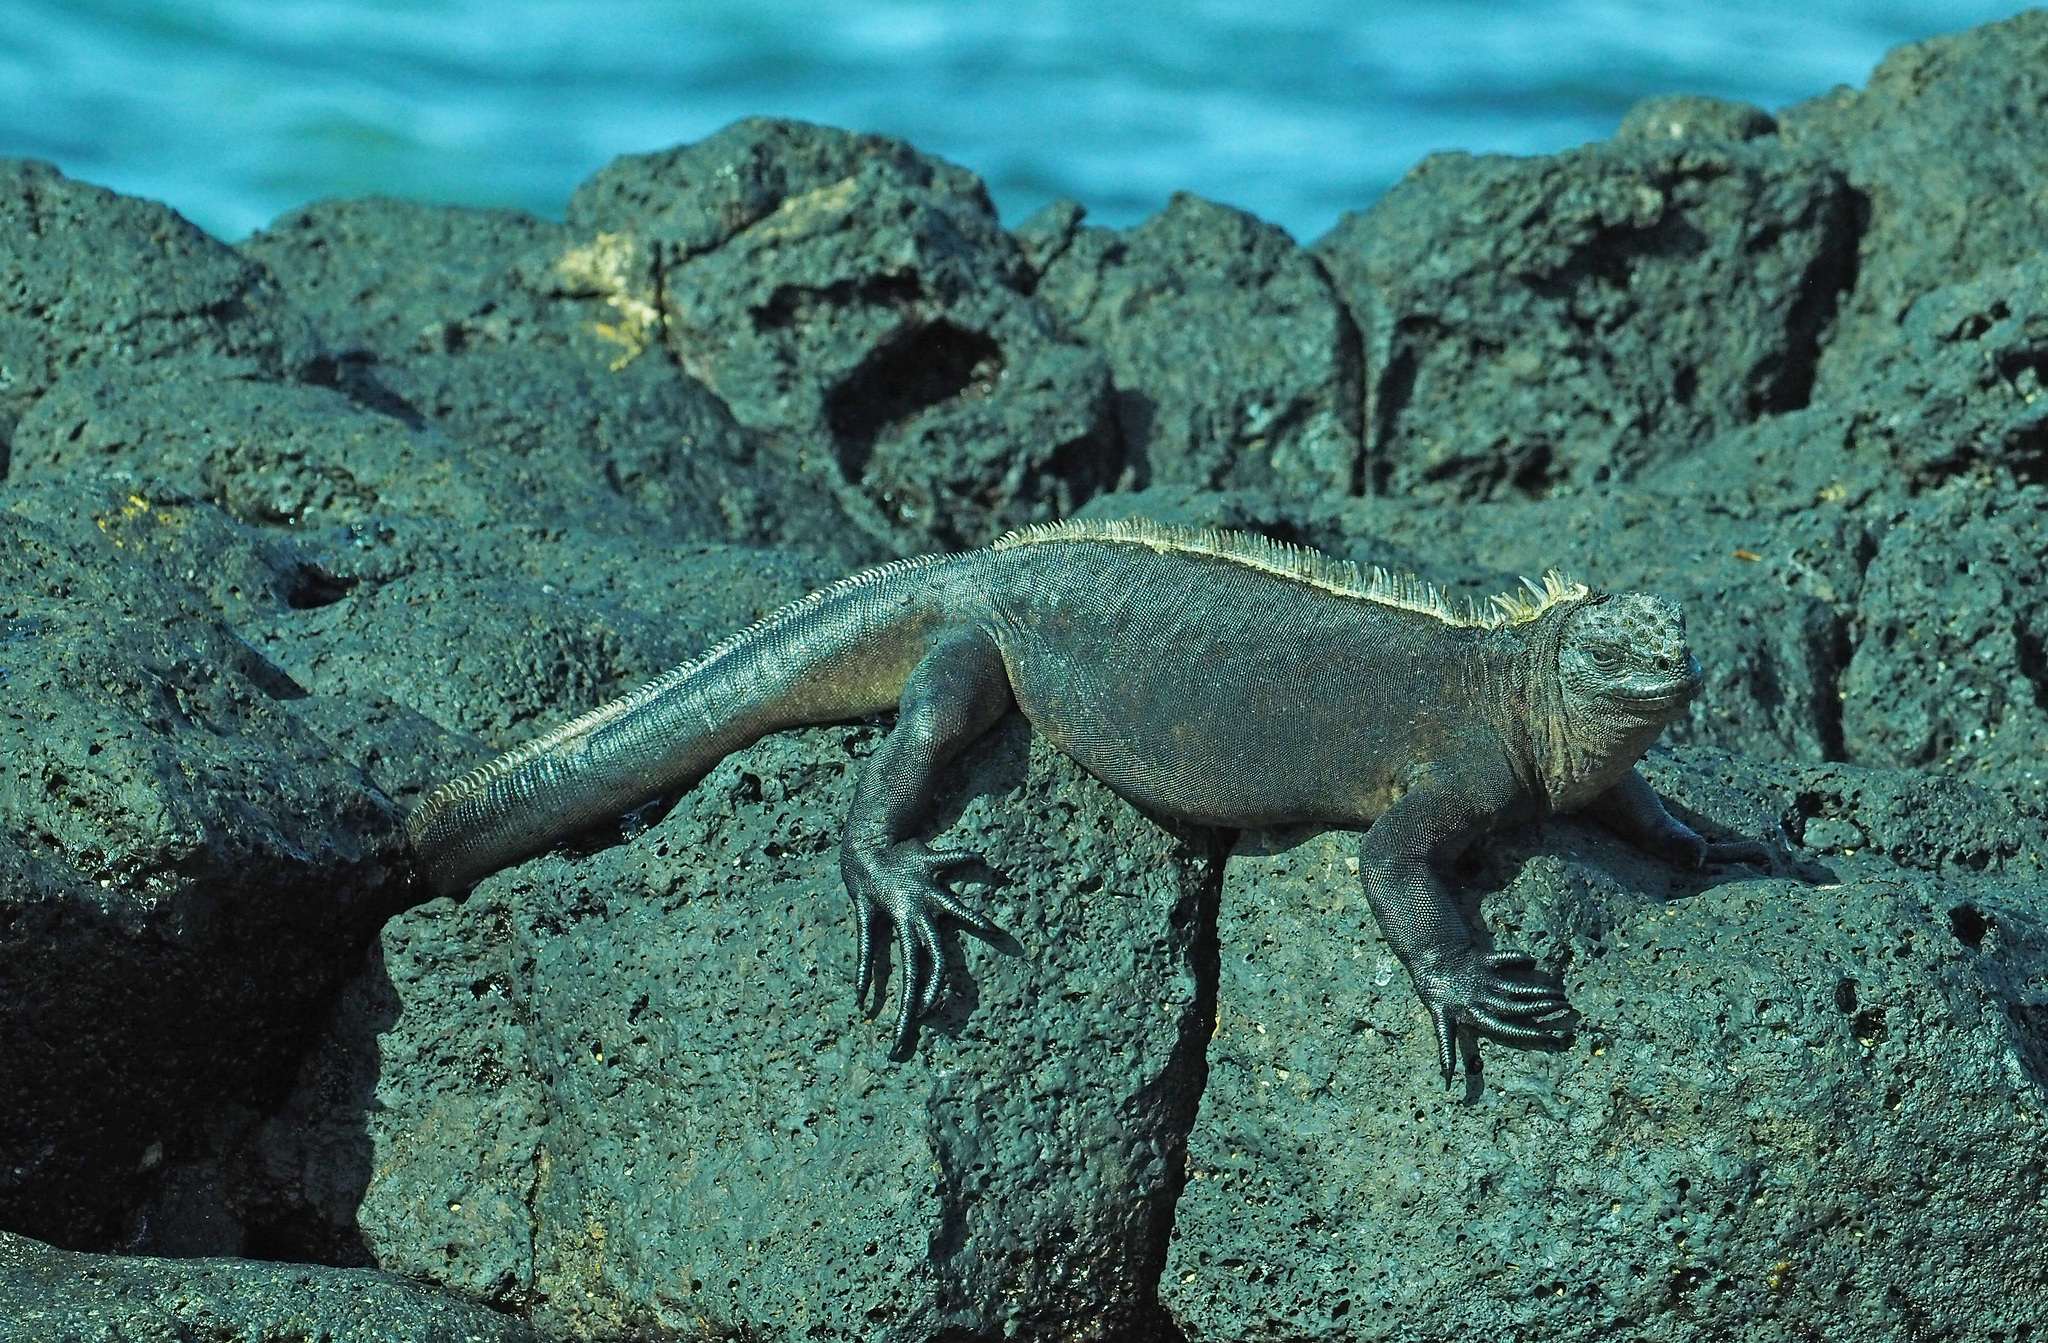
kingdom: Animalia
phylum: Chordata
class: Squamata
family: Iguanidae
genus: Amblyrhynchus
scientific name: Amblyrhynchus cristatus
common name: Marine iguana
